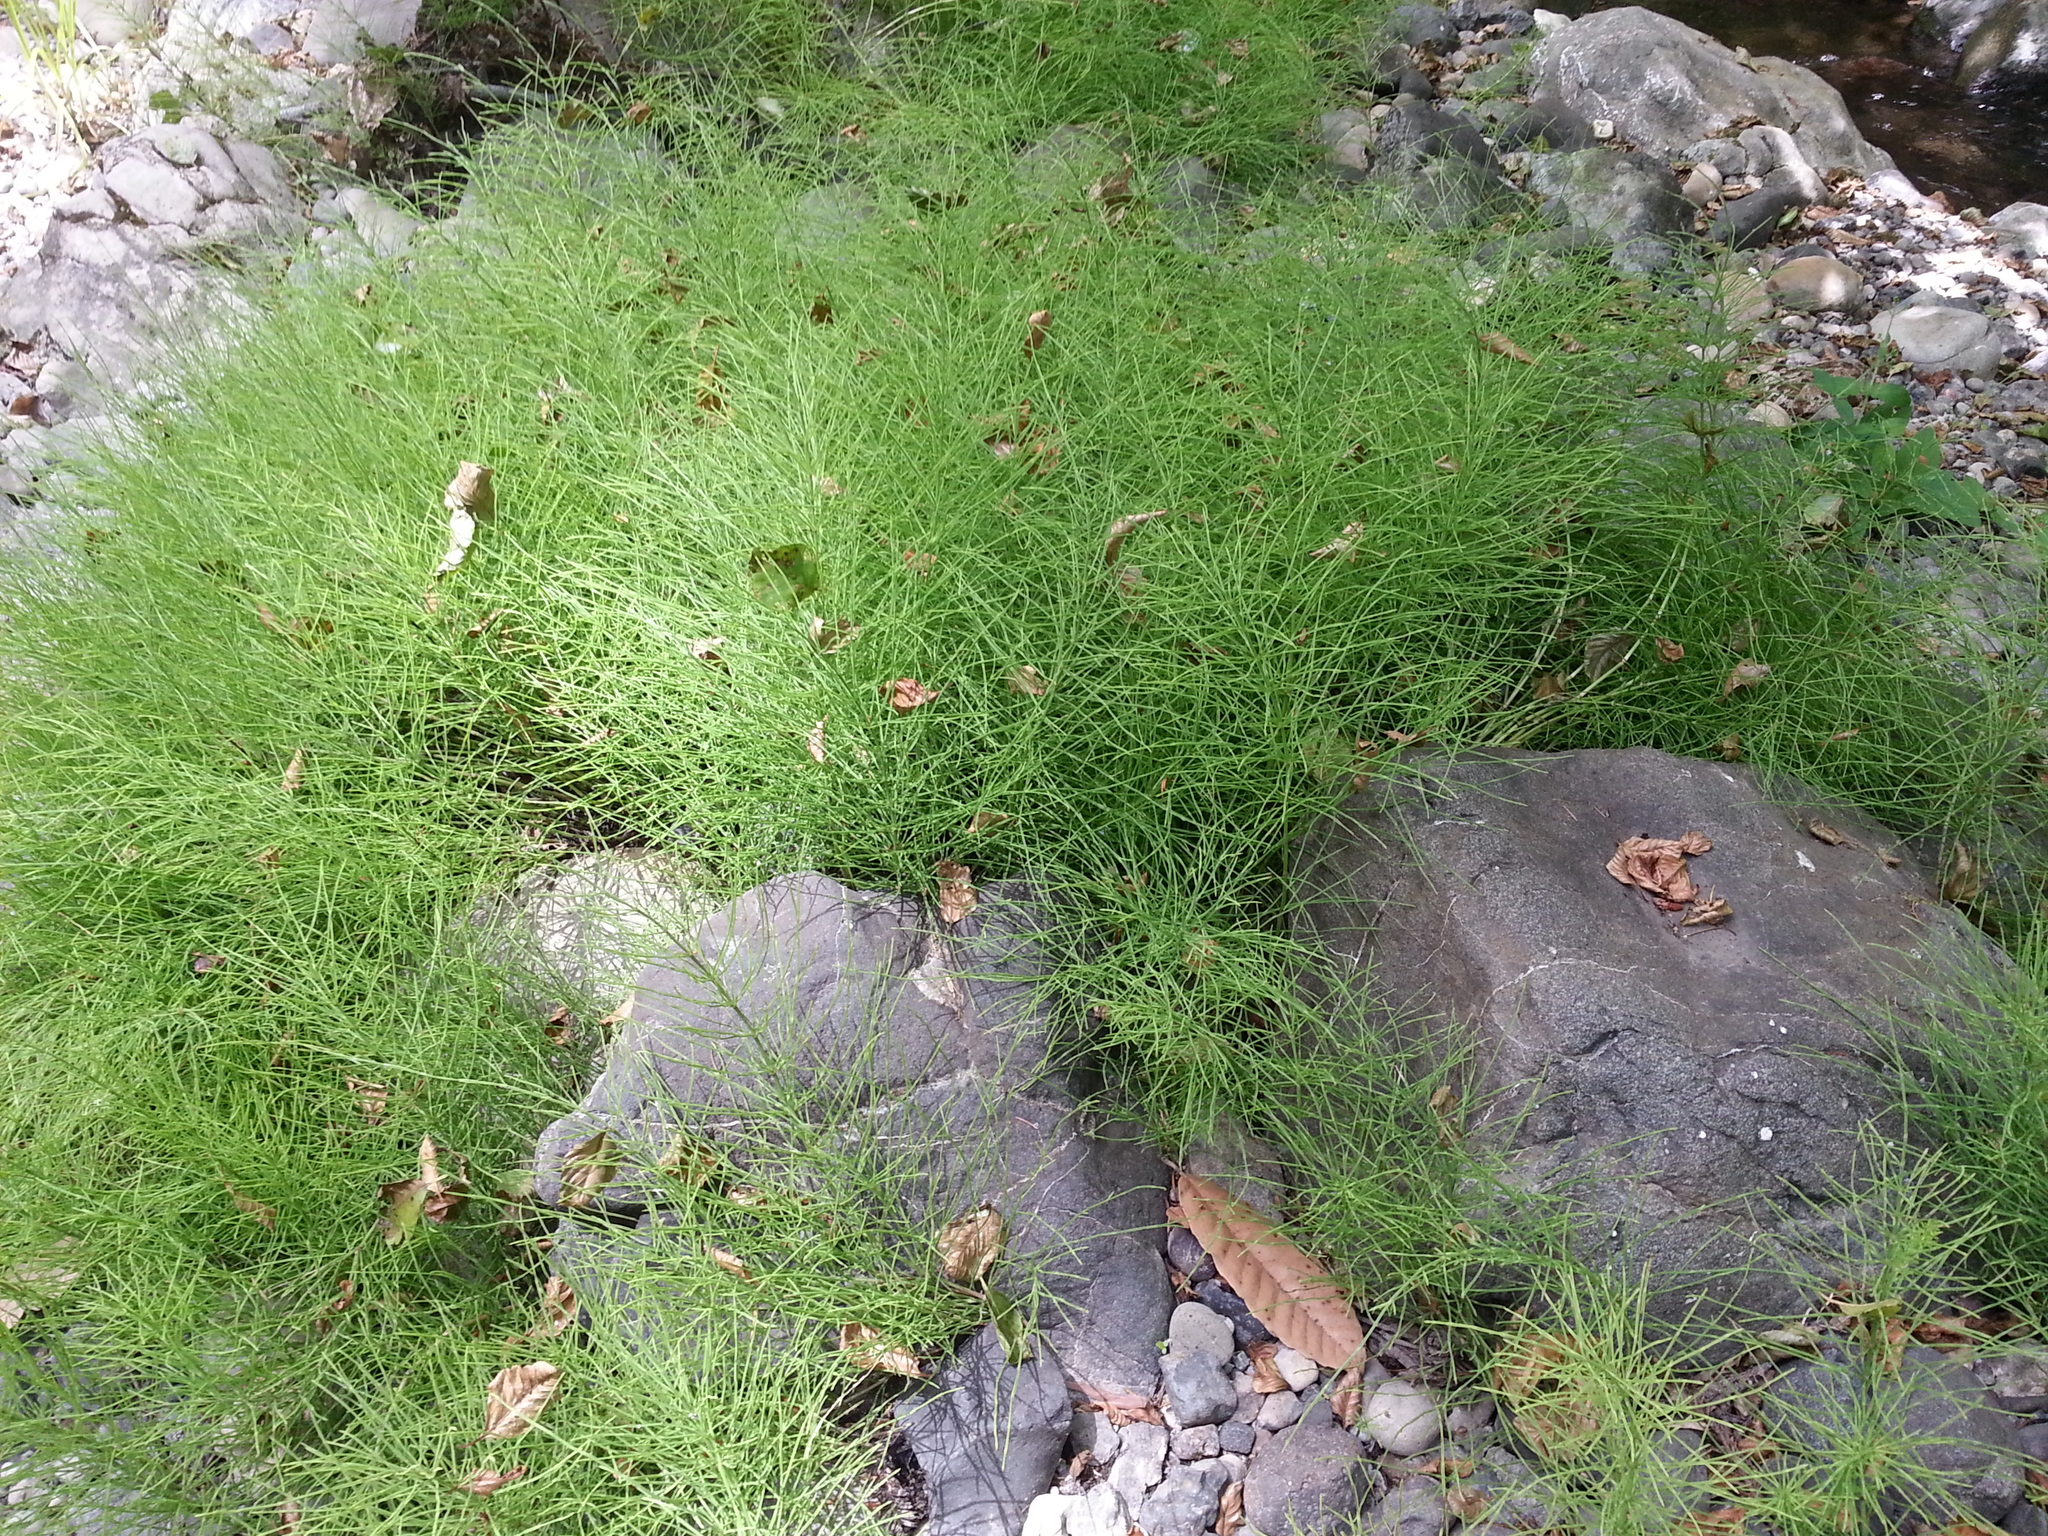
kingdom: Plantae
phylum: Tracheophyta
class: Polypodiopsida
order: Equisetales
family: Equisetaceae
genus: Equisetum
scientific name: Equisetum arvense
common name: Field horsetail
